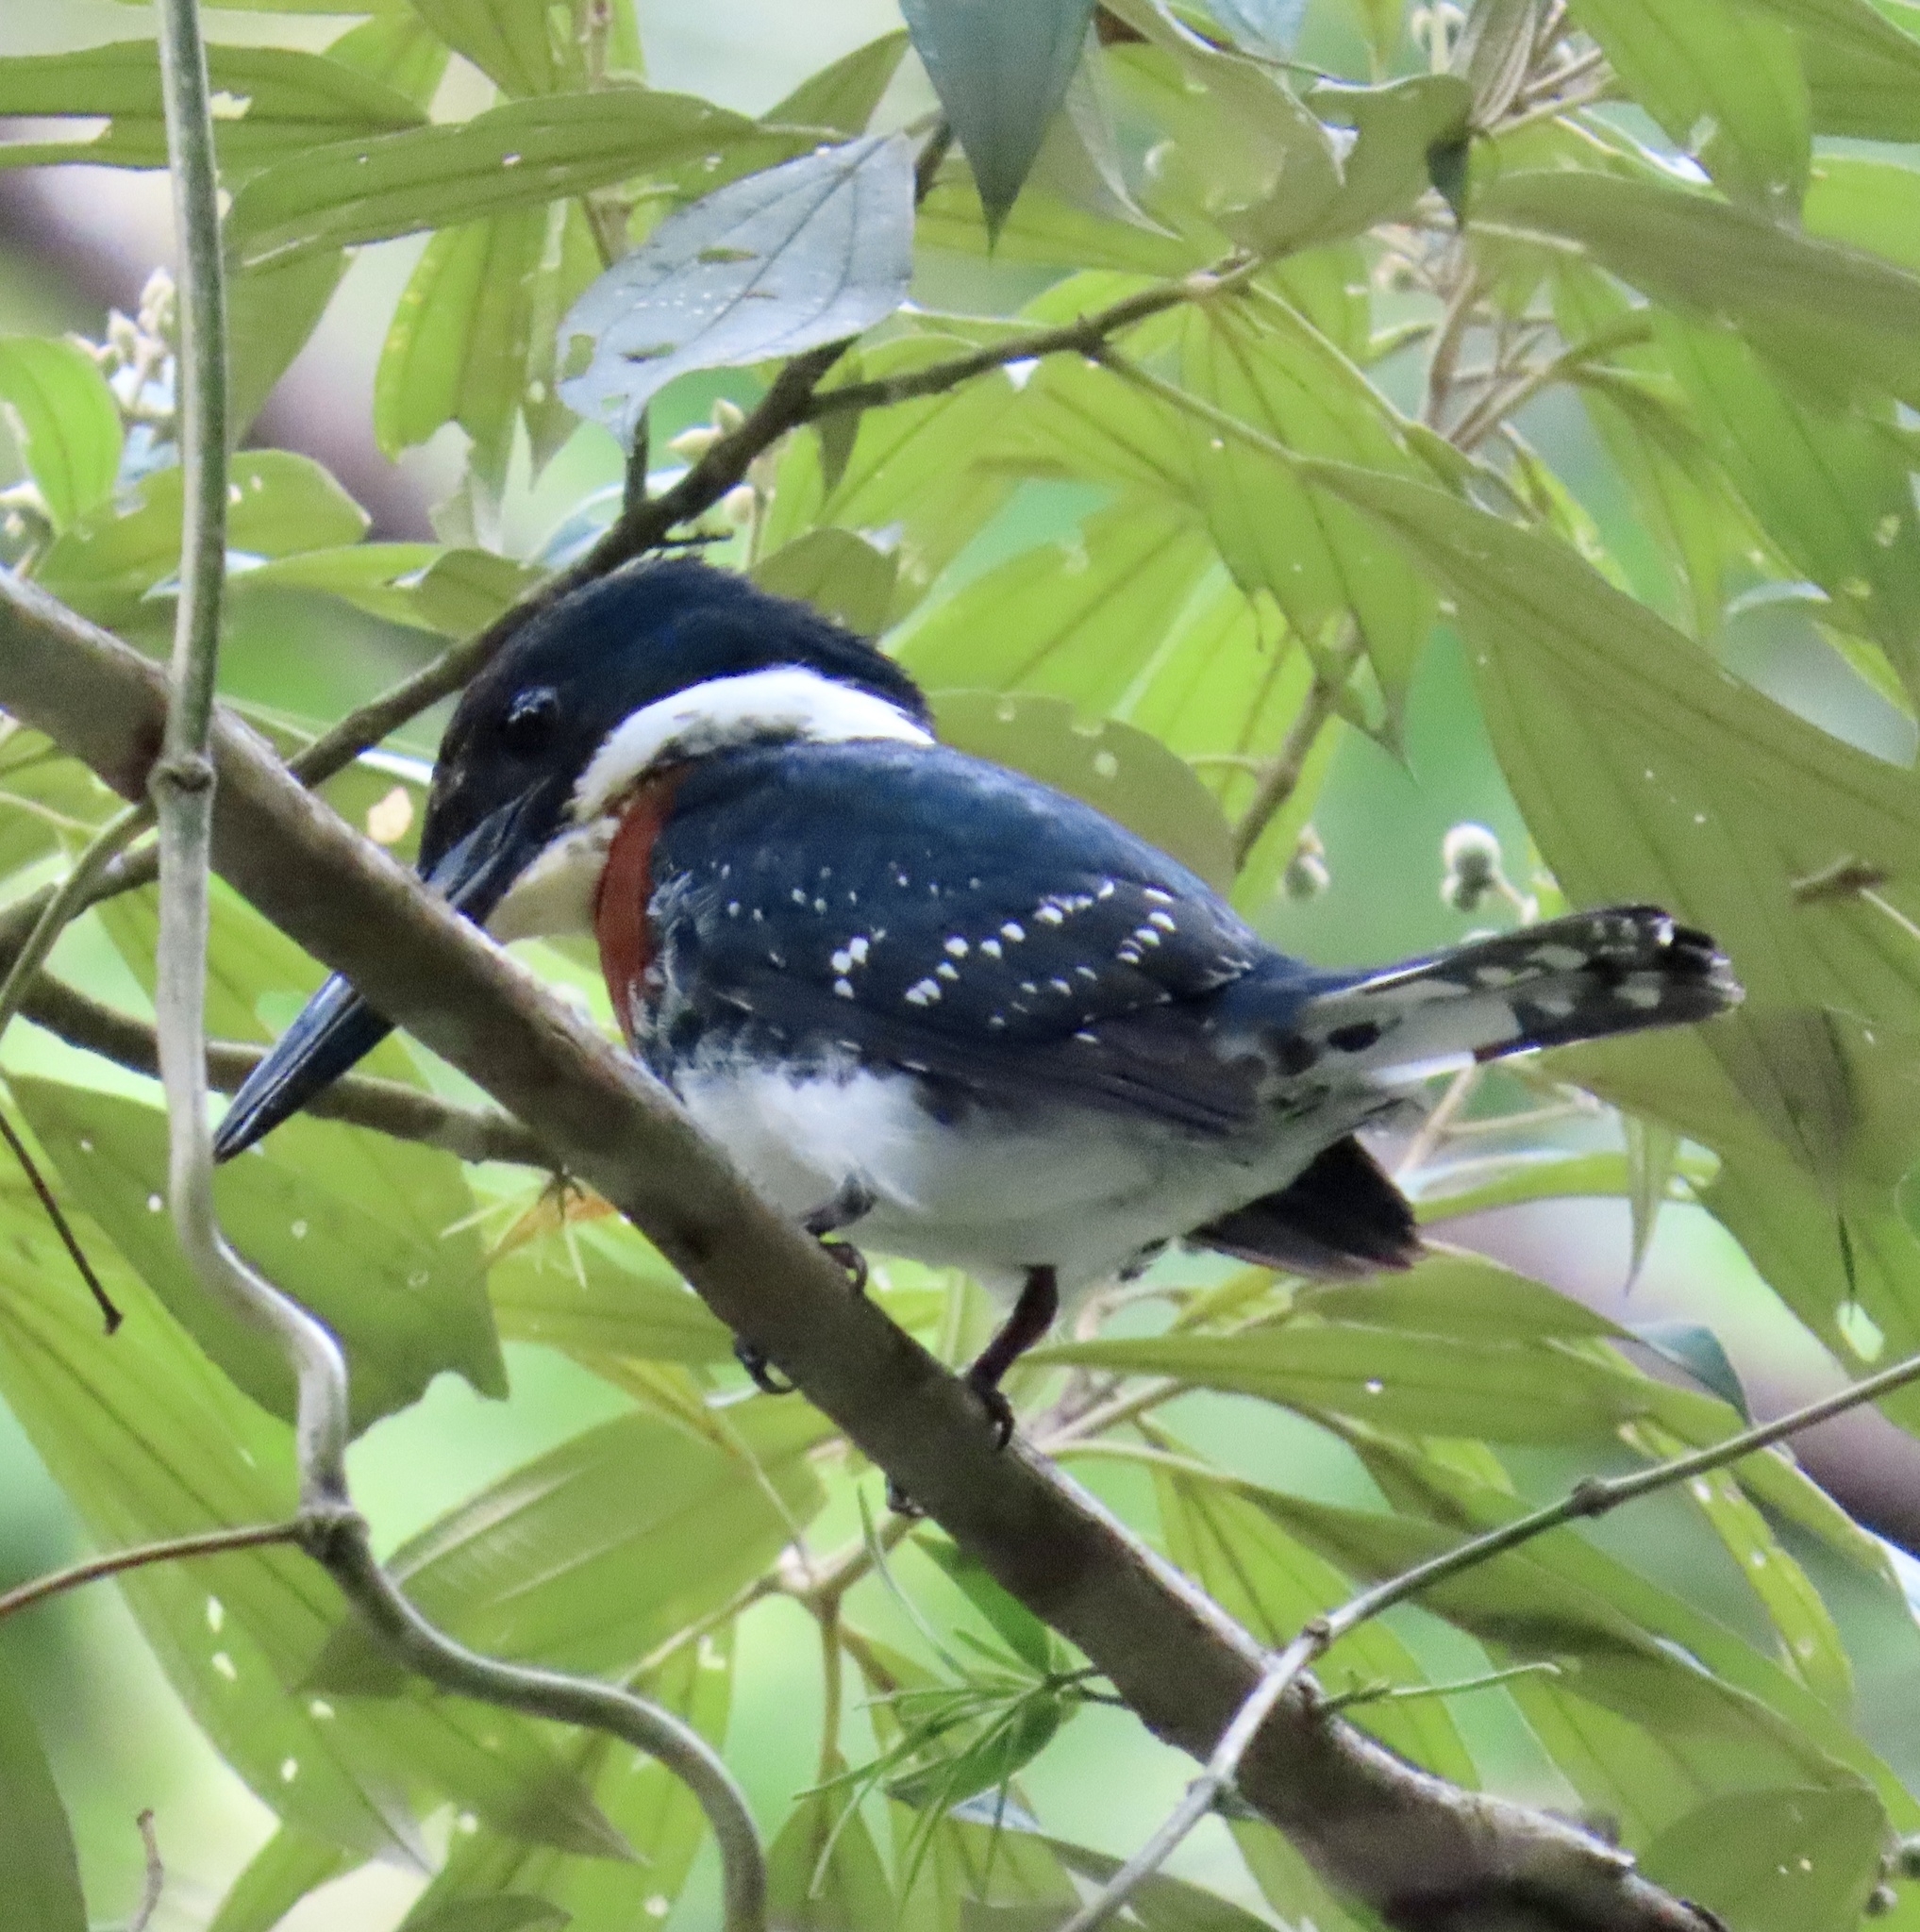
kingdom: Animalia
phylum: Chordata
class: Aves
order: Coraciiformes
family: Alcedinidae
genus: Chloroceryle
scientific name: Chloroceryle americana
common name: Green kingfisher
